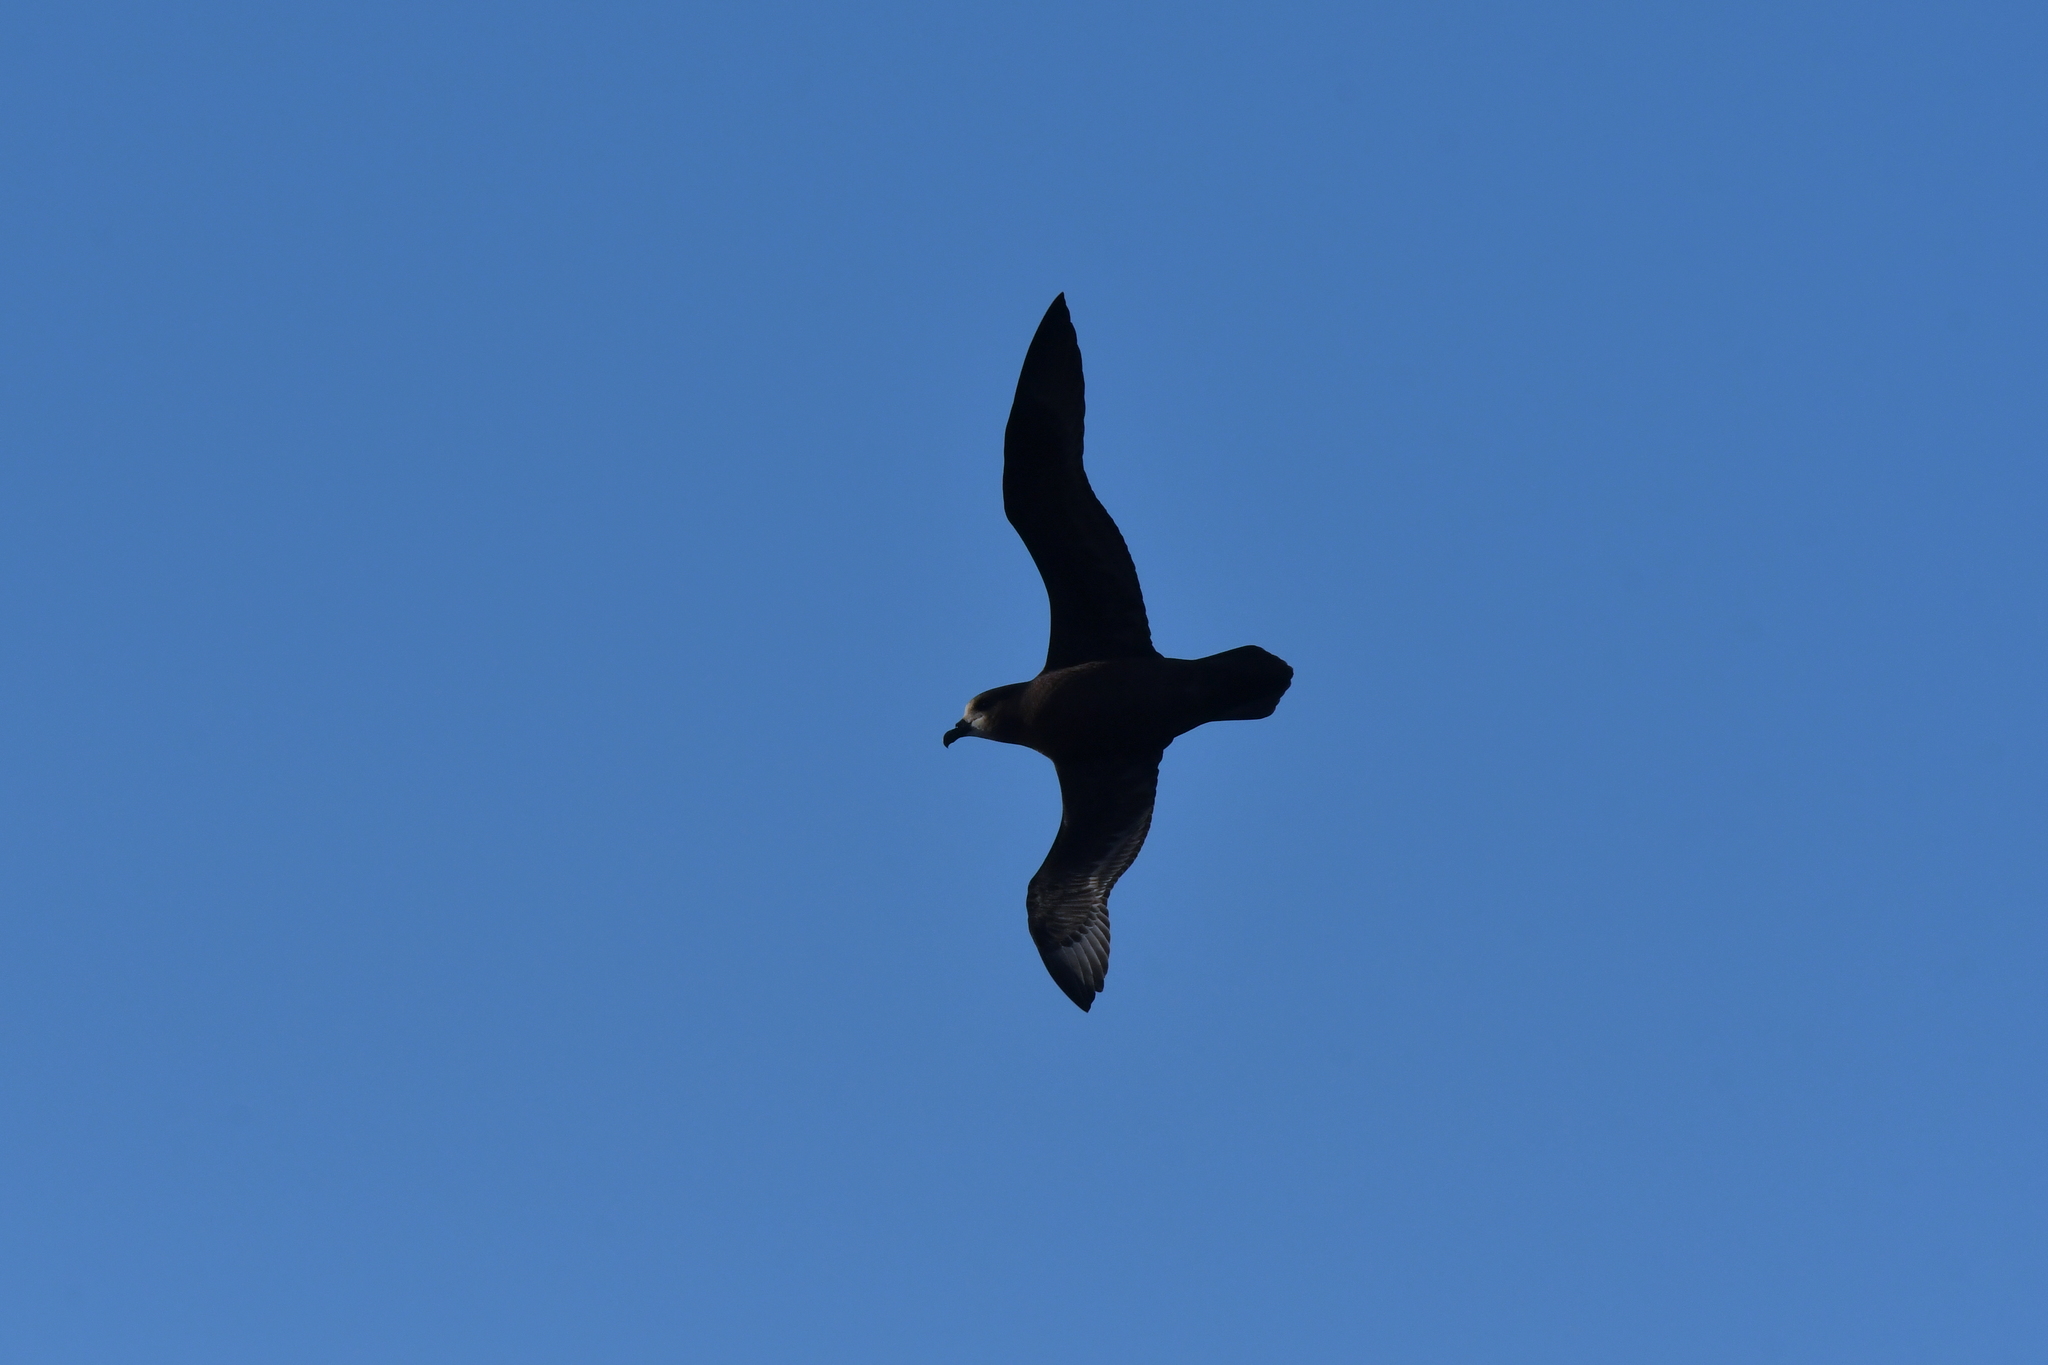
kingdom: Animalia
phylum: Chordata
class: Aves
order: Procellariiformes
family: Procellariidae
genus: Pterodroma
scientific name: Pterodroma macroptera
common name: Great-winged petrel
